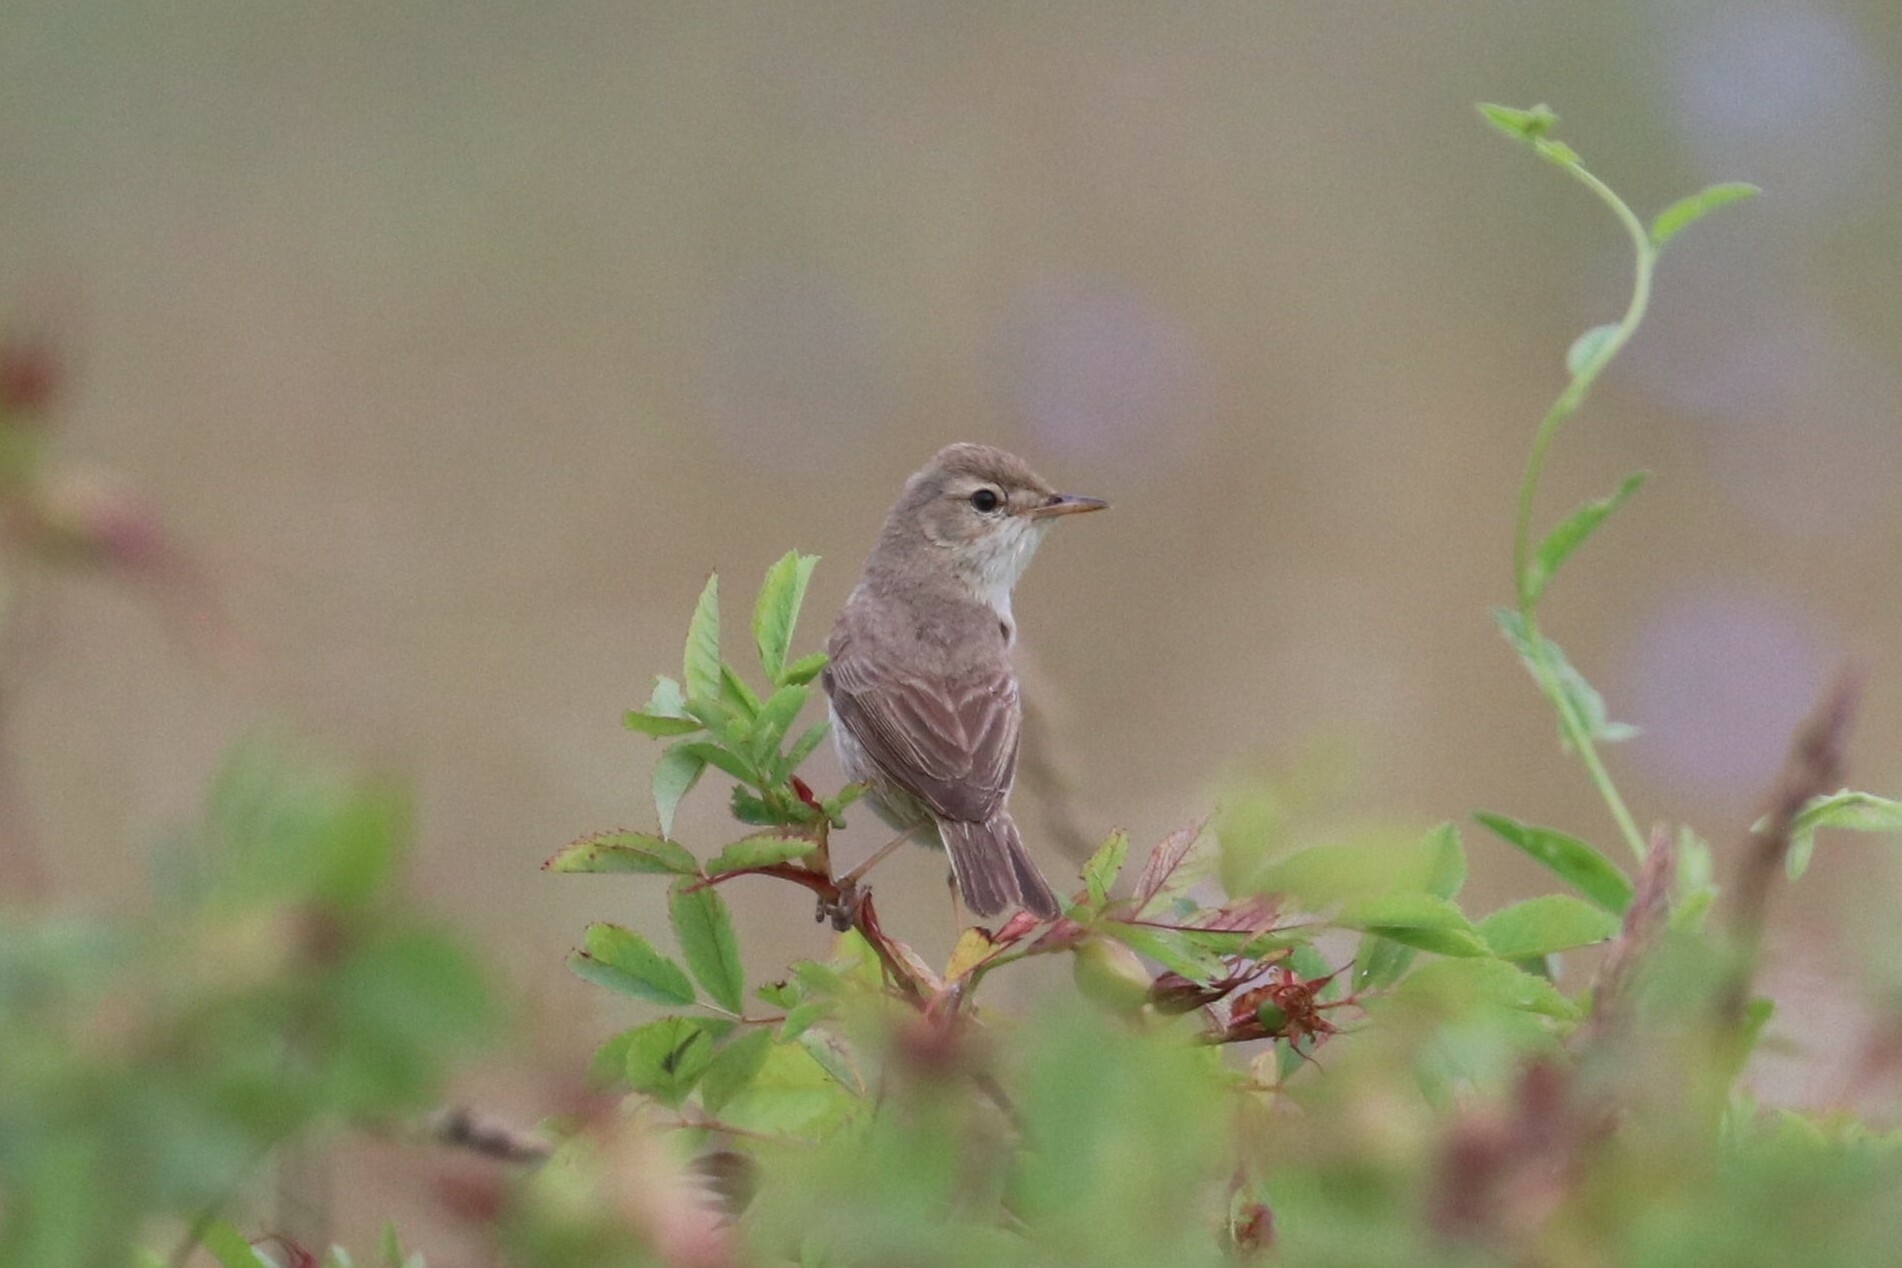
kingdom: Animalia
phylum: Chordata
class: Aves
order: Passeriformes
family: Acrocephalidae
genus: Iduna
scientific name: Iduna caligata
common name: Booted warbler
